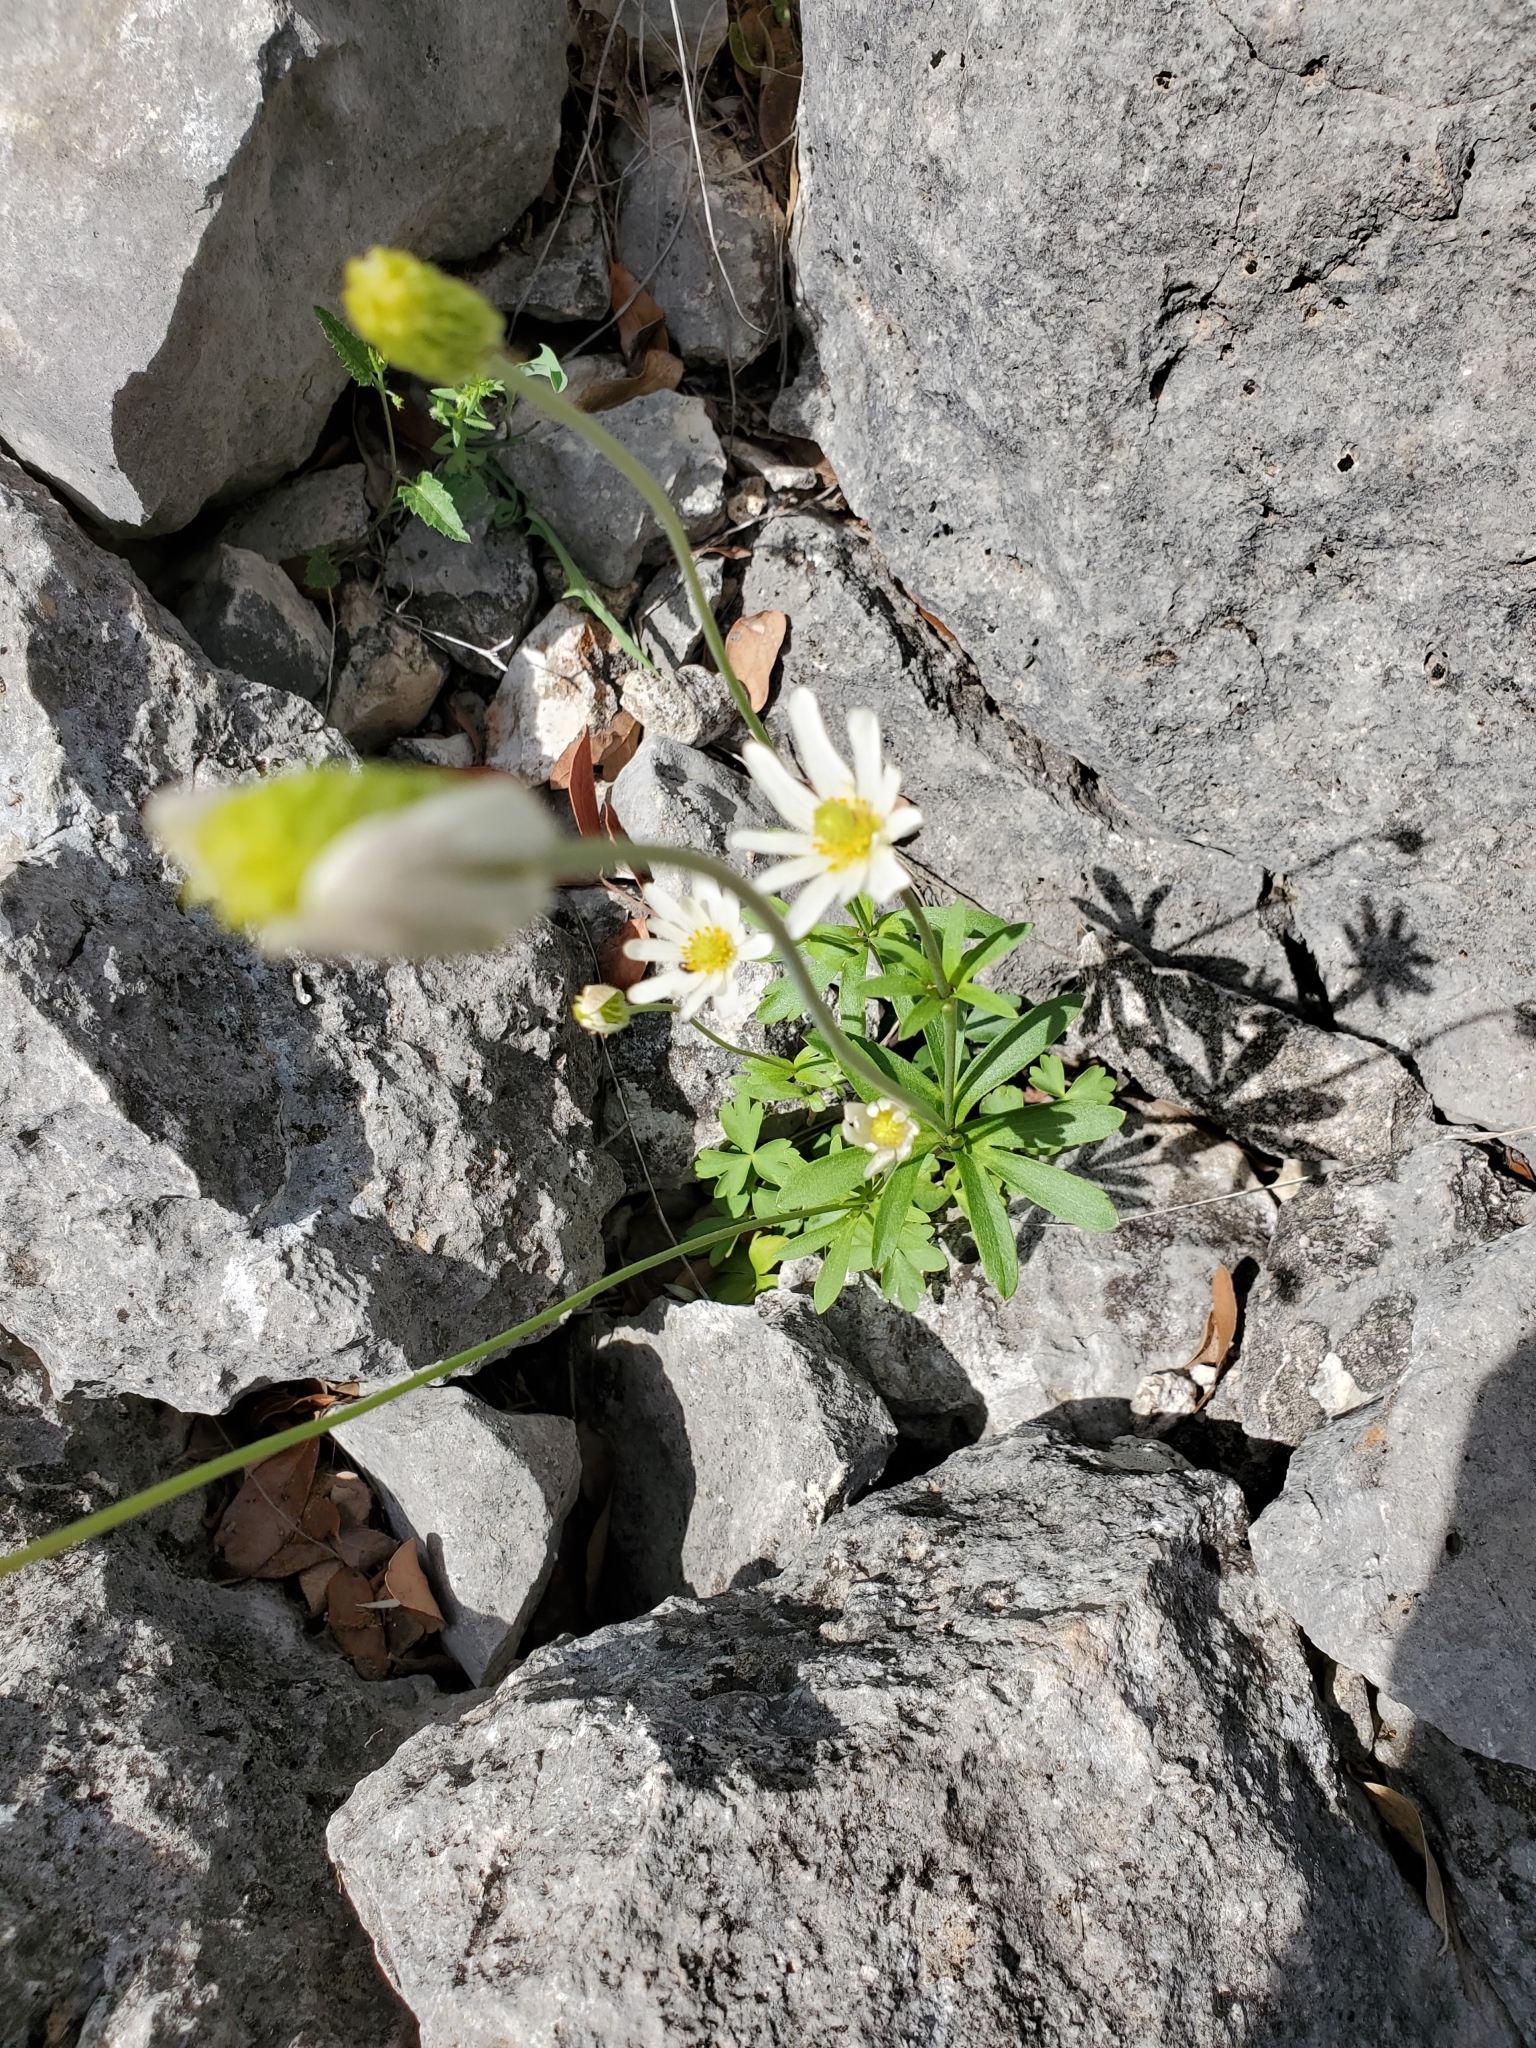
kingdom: Plantae
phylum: Tracheophyta
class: Magnoliopsida
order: Ranunculales
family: Ranunculaceae
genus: Anemone
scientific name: Anemone edwardsiana
